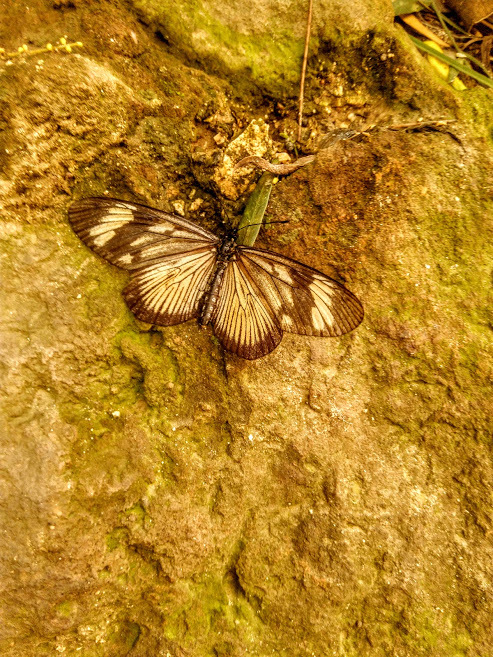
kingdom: Animalia
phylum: Arthropoda
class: Insecta
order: Lepidoptera
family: Nymphalidae
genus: Actinote
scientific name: Actinote anteas
